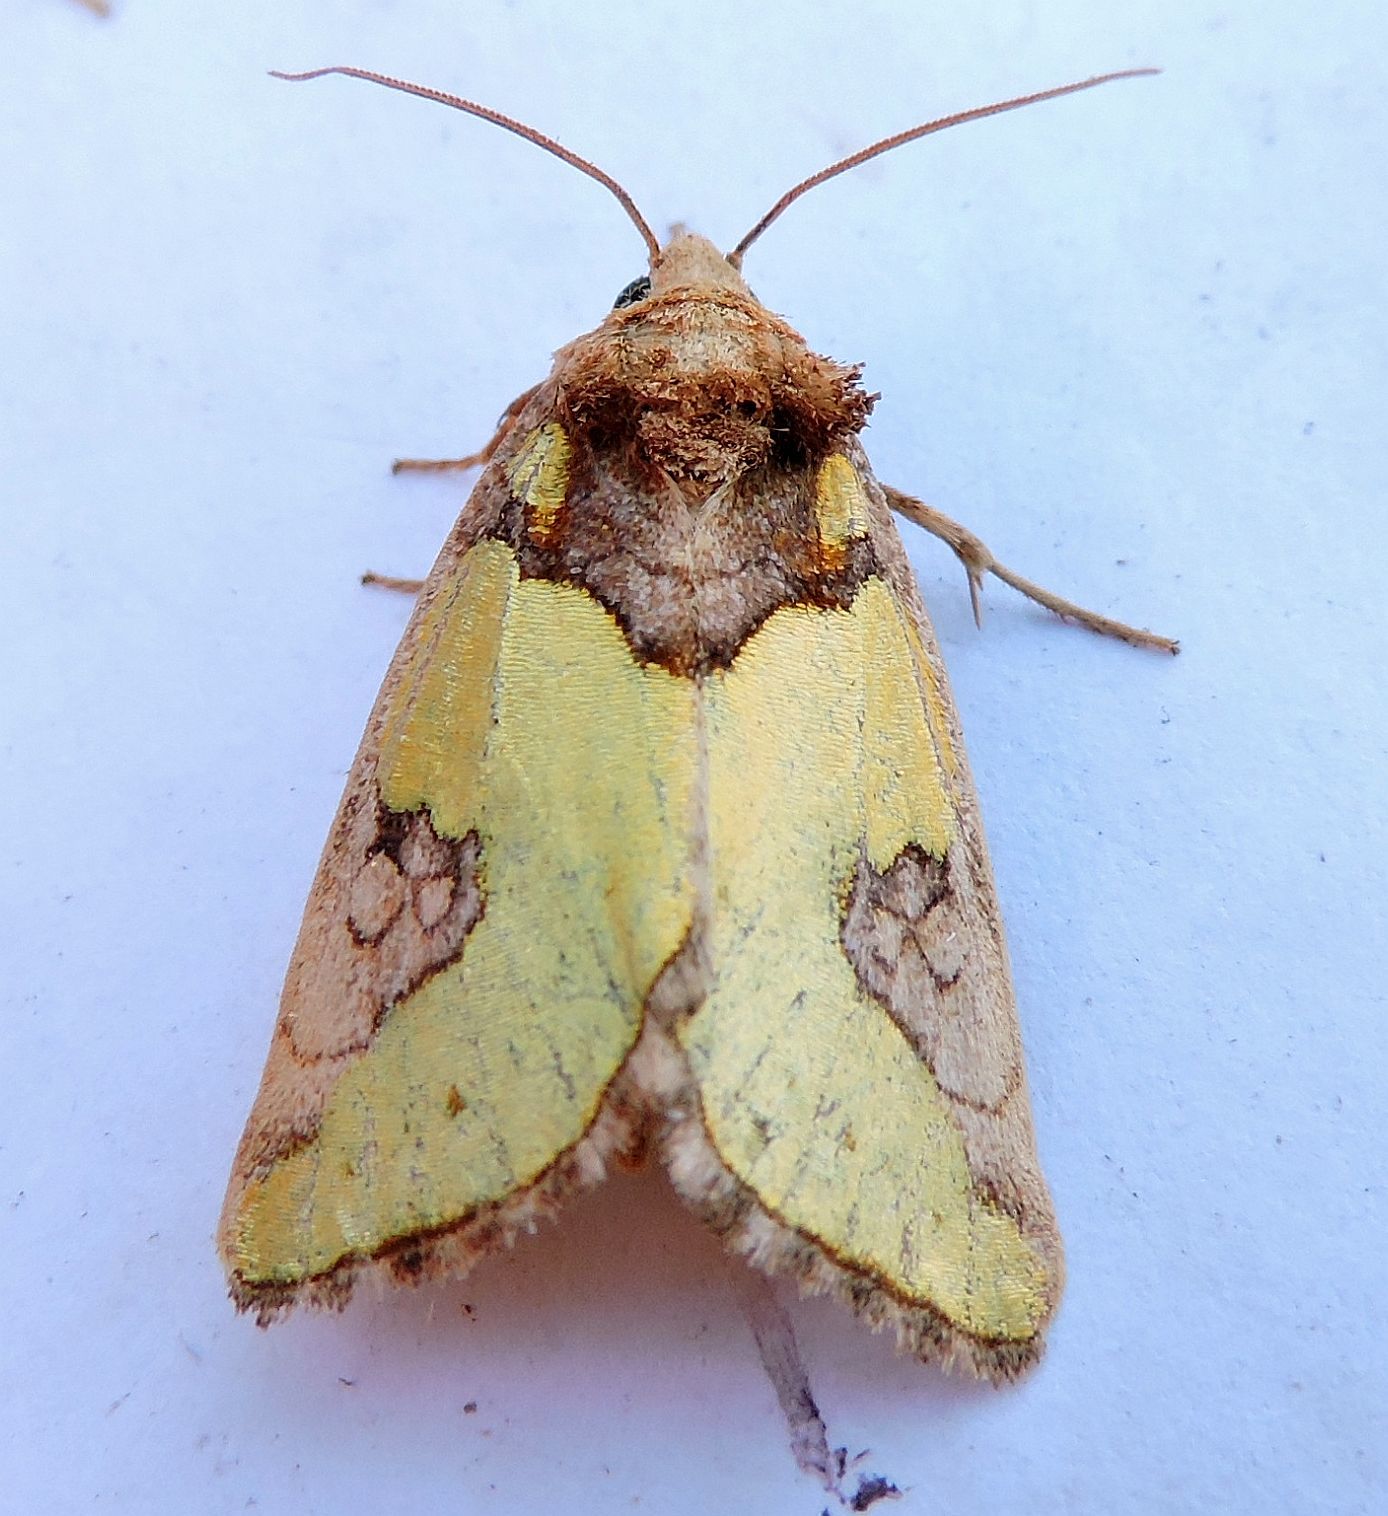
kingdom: Animalia
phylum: Arthropoda
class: Insecta
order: Lepidoptera
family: Noctuidae
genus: Chalcopasta
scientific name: Chalcopasta howardi
